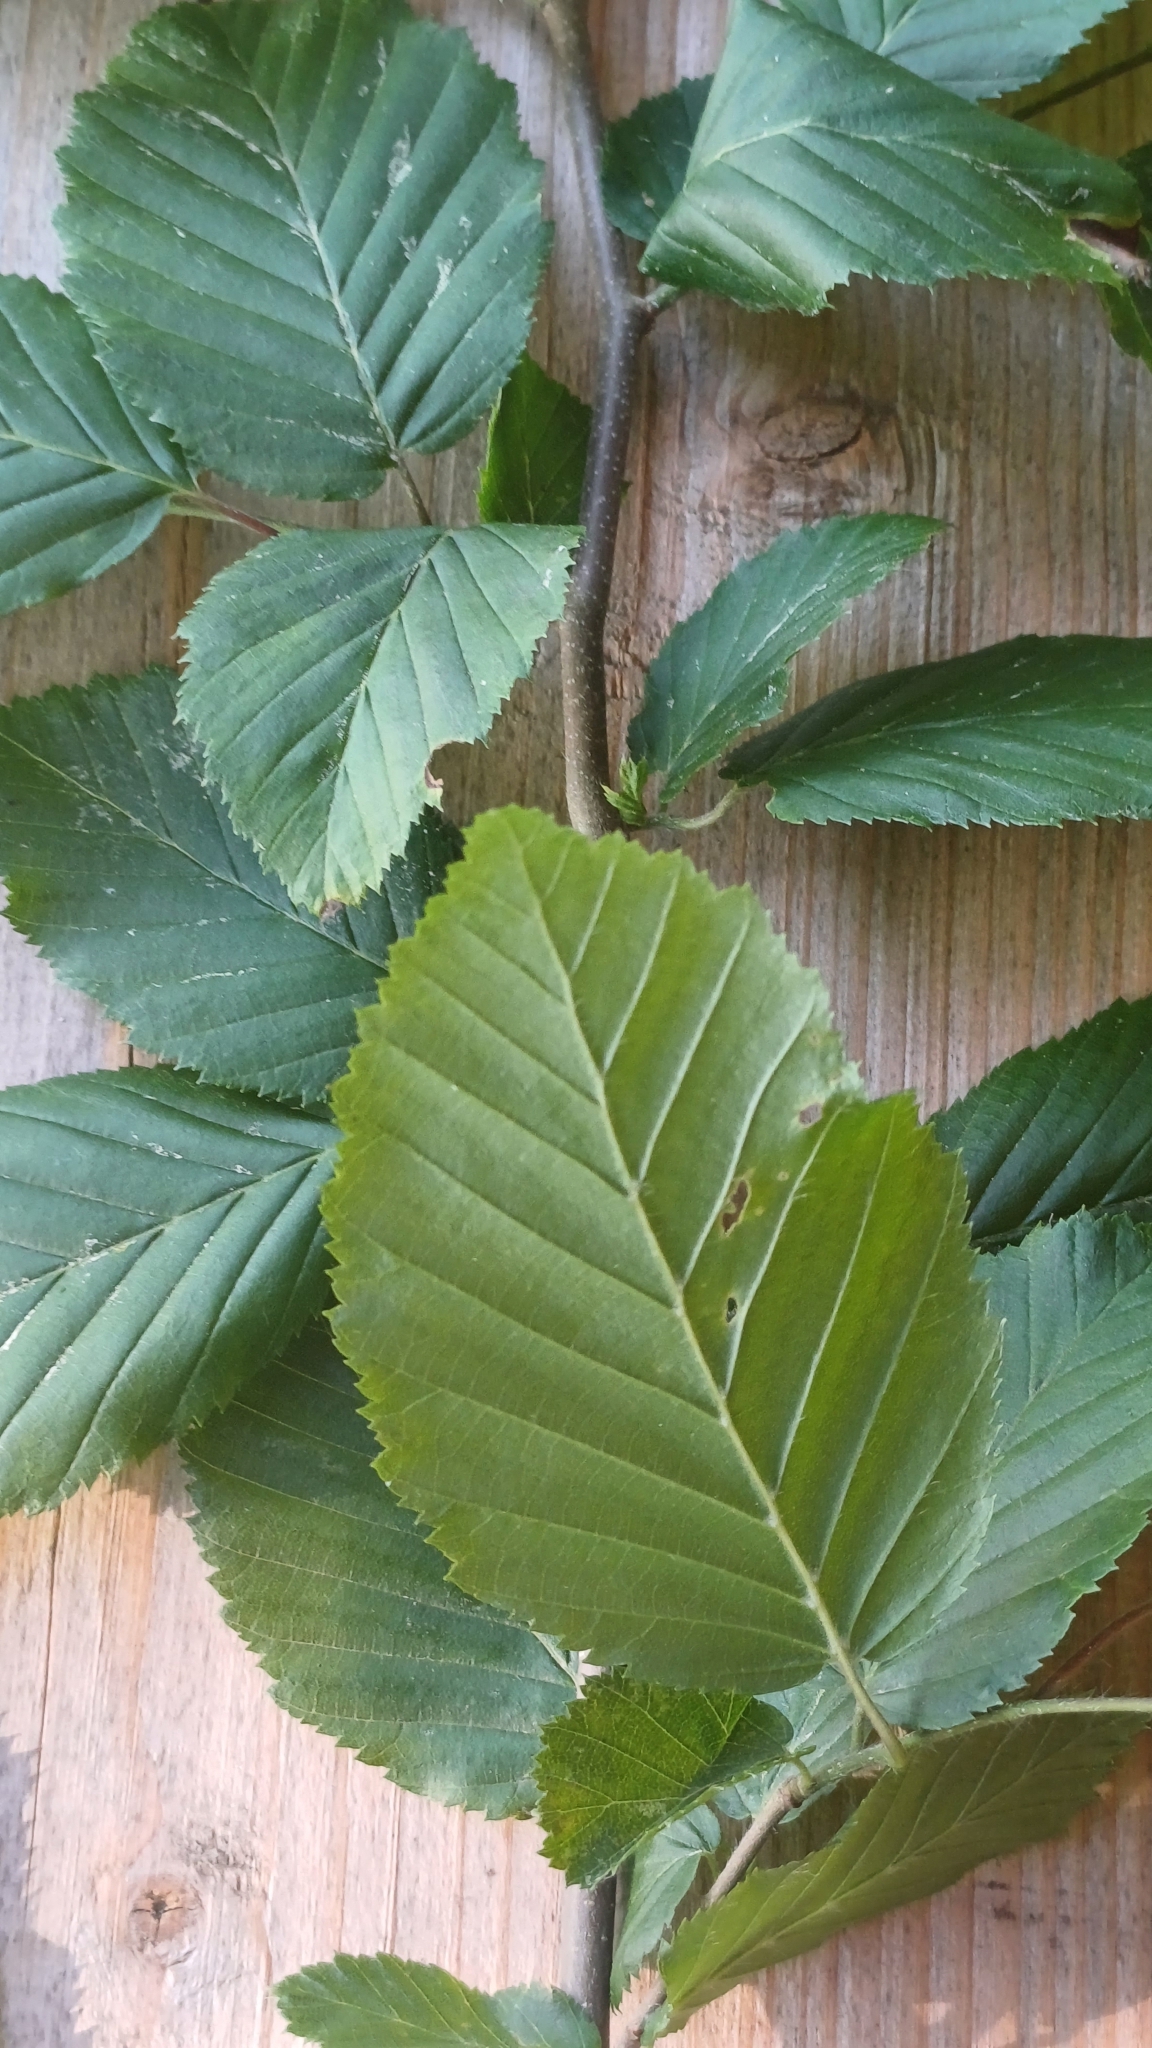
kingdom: Plantae
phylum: Tracheophyta
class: Magnoliopsida
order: Fagales
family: Betulaceae
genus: Carpinus
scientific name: Carpinus betulus
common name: Hornbeam
